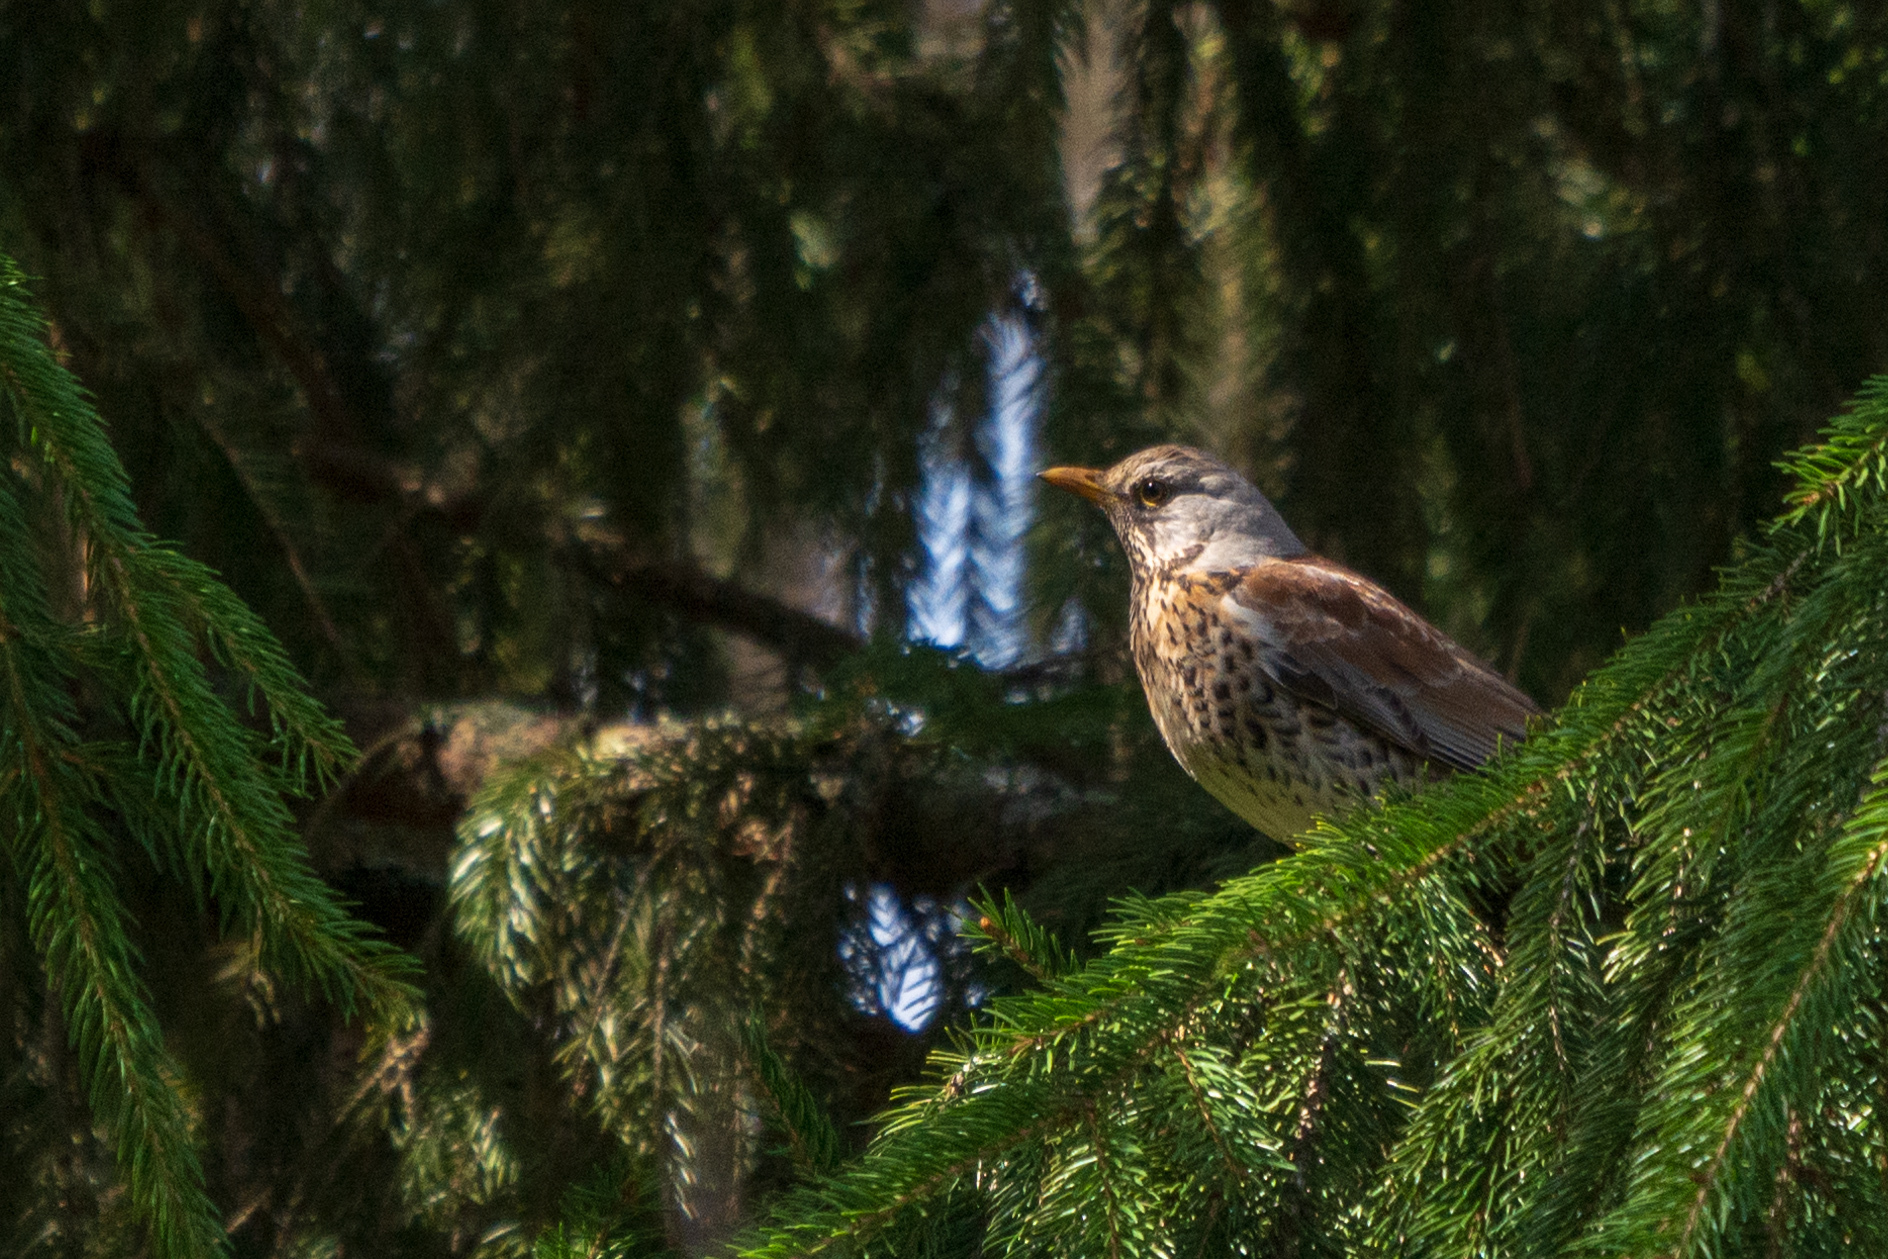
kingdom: Animalia
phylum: Chordata
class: Aves
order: Passeriformes
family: Turdidae
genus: Turdus
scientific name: Turdus pilaris
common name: Fieldfare
